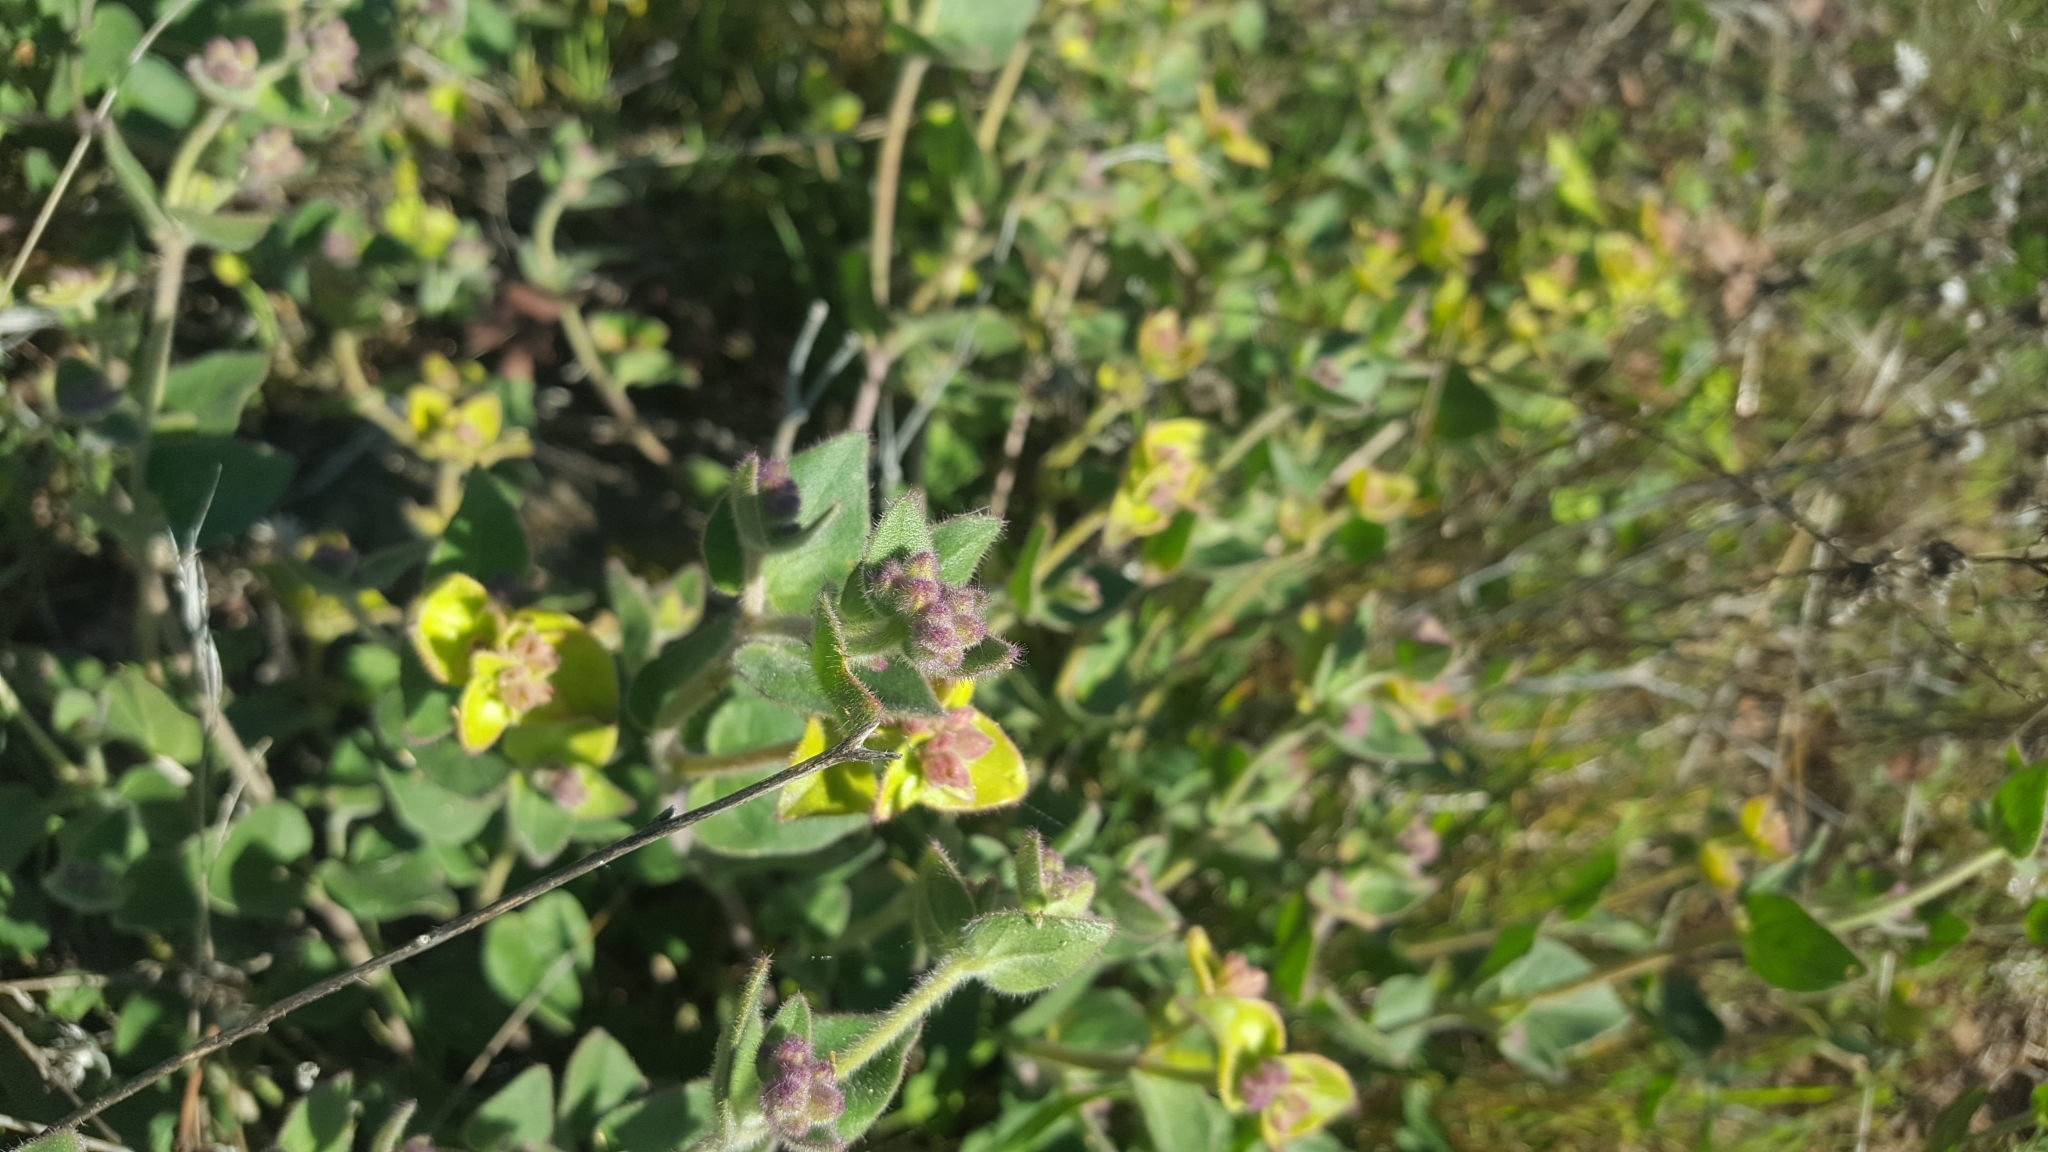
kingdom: Plantae
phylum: Tracheophyta
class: Magnoliopsida
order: Caryophyllales
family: Nyctaginaceae
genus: Mirabilis
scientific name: Mirabilis laevis
